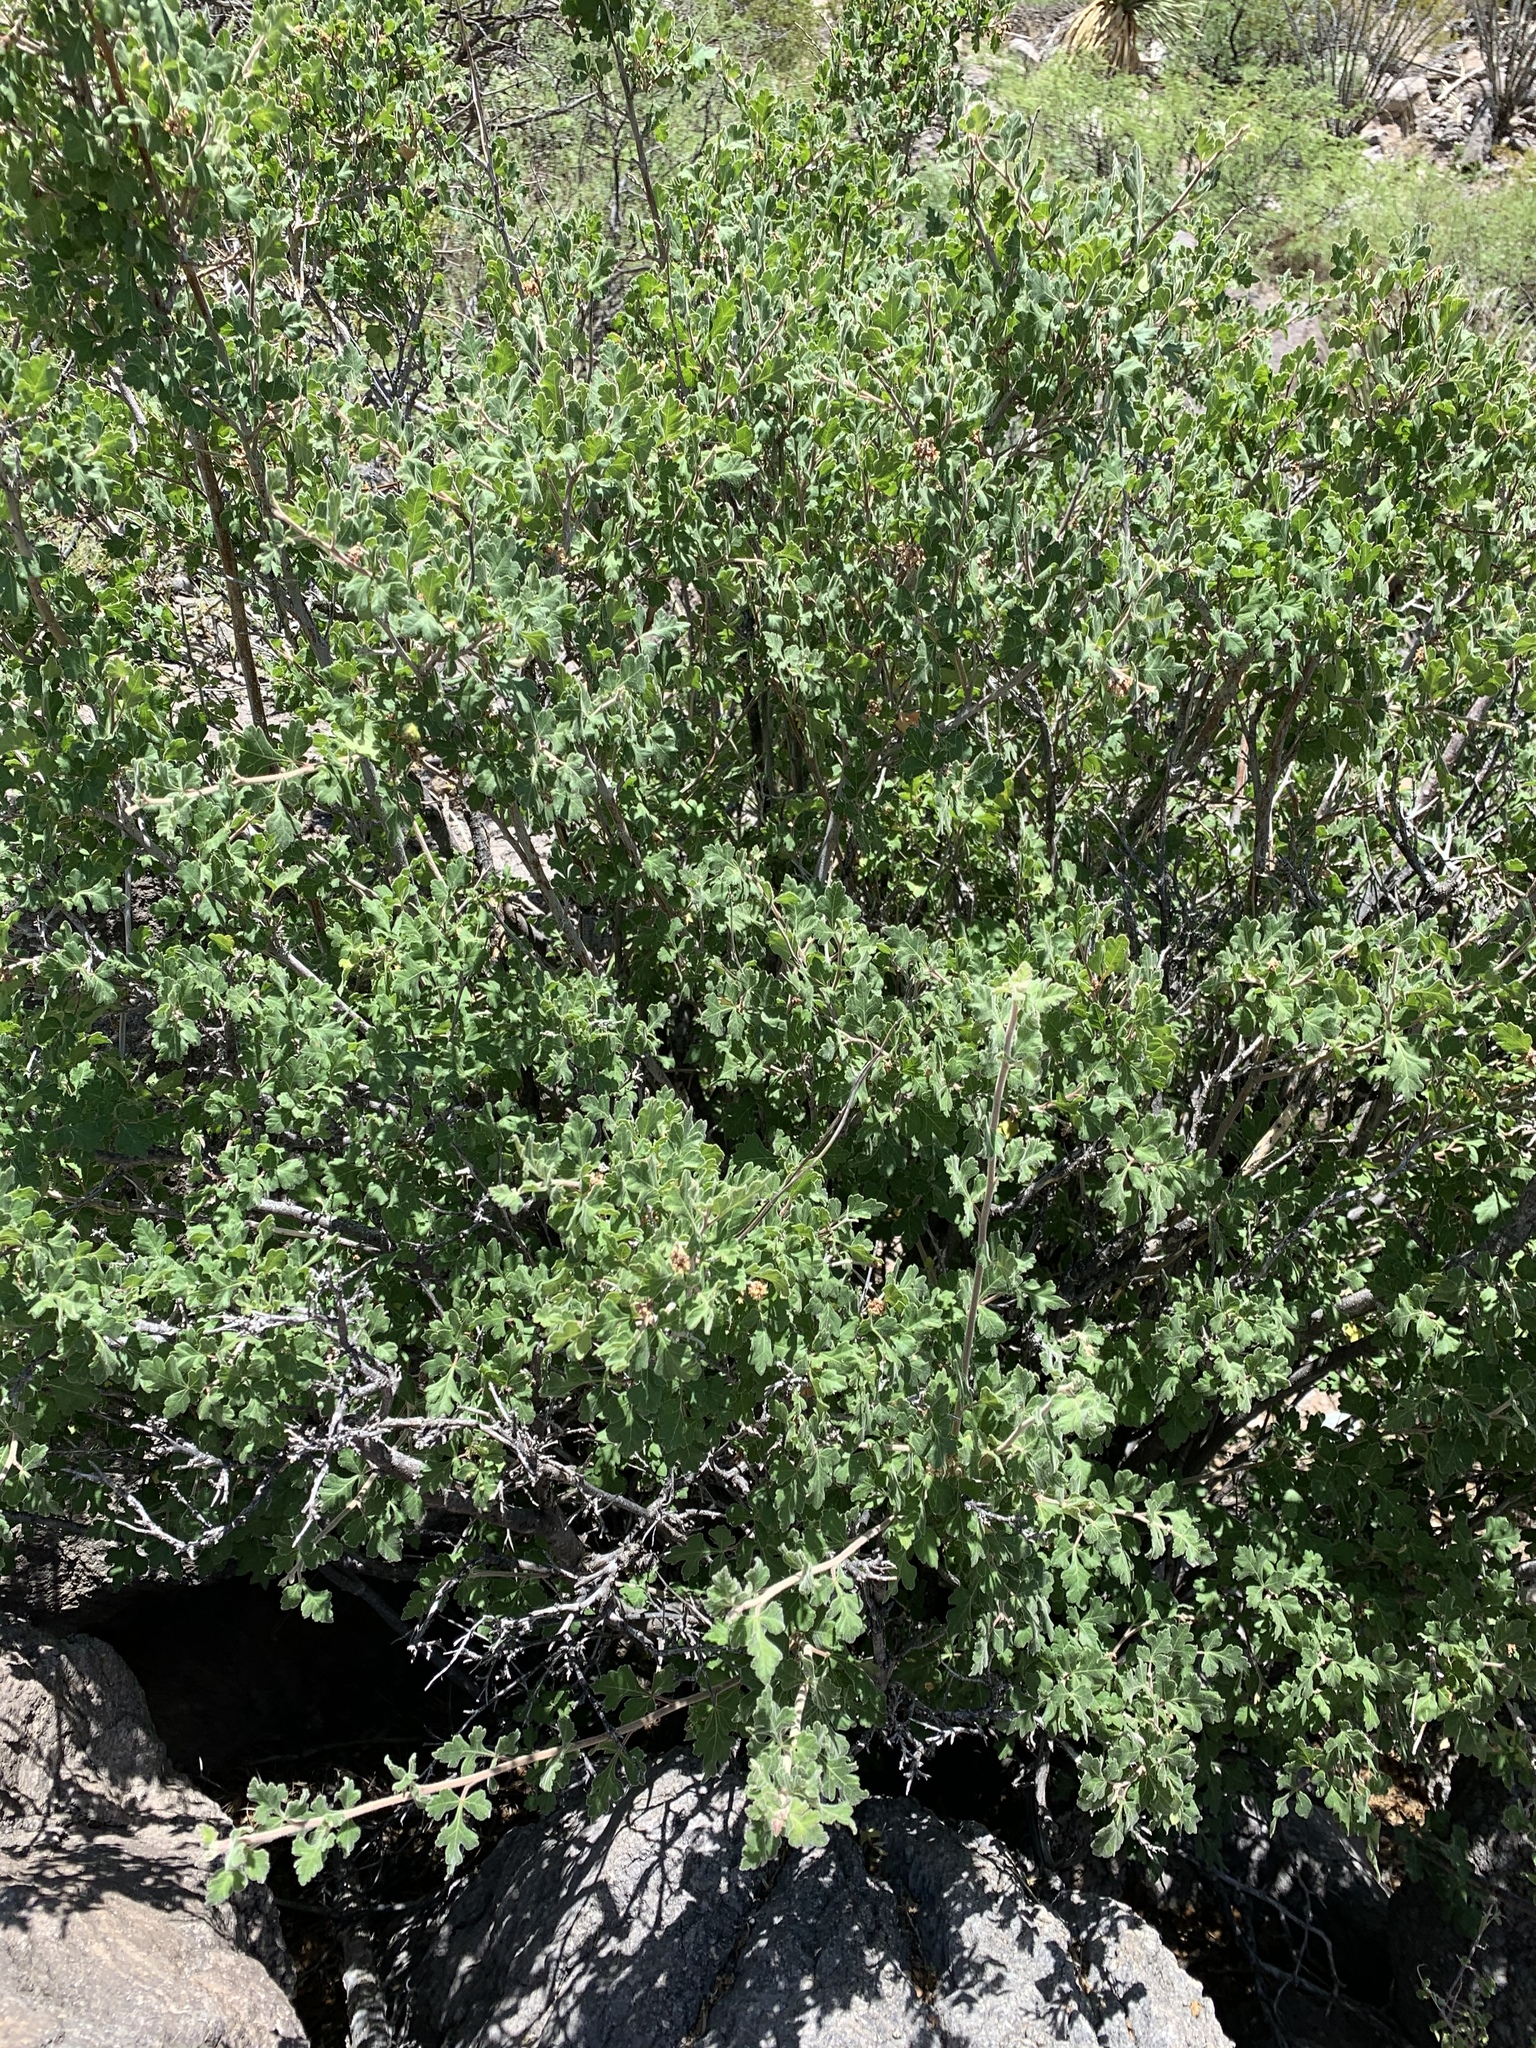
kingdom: Plantae
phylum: Tracheophyta
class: Magnoliopsida
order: Sapindales
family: Anacardiaceae
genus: Rhus
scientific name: Rhus aromatica
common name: Aromatic sumac
